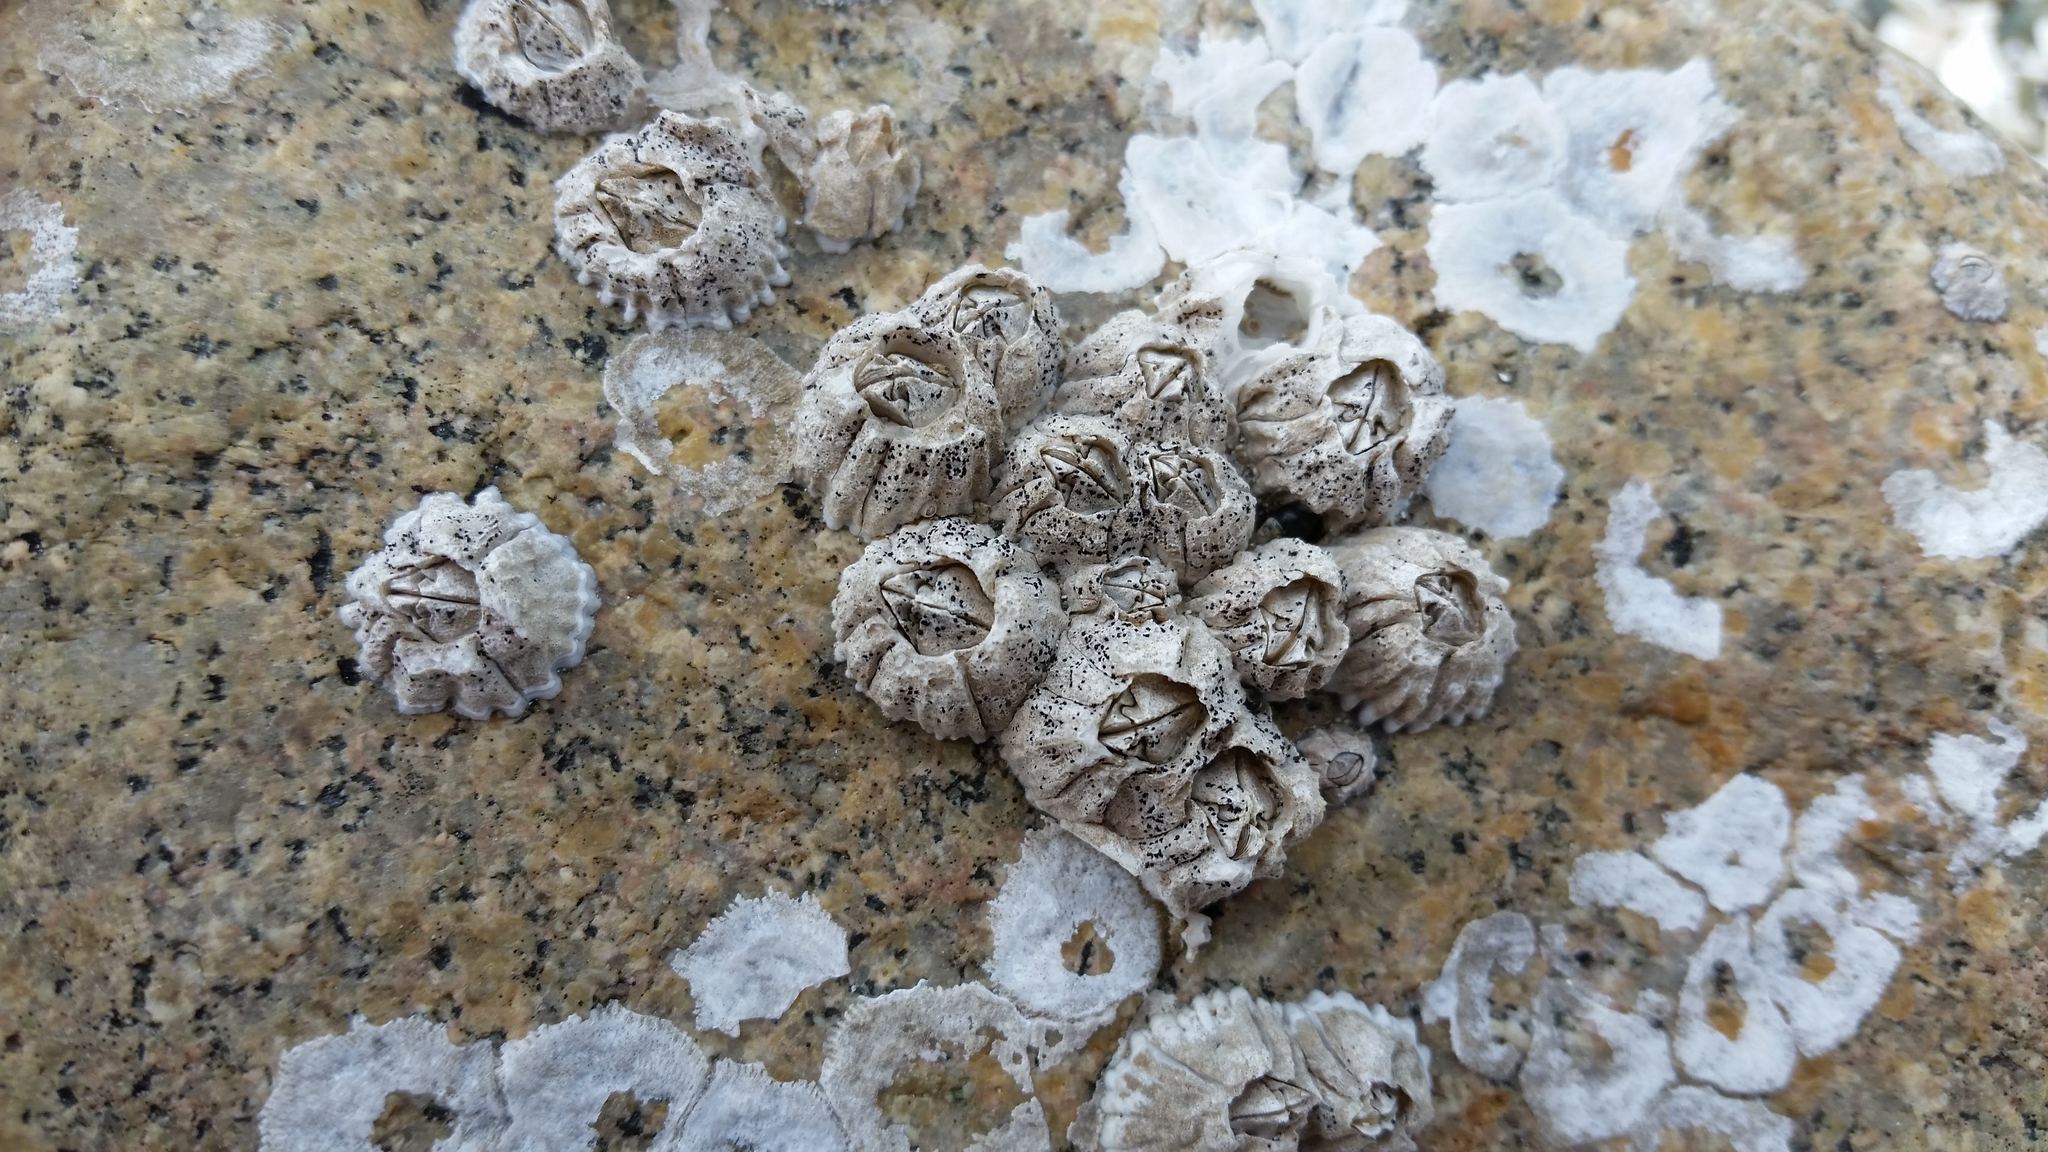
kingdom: Animalia
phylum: Arthropoda
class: Maxillopoda
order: Sessilia
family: Balanidae
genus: Balanus
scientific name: Balanus glandula
